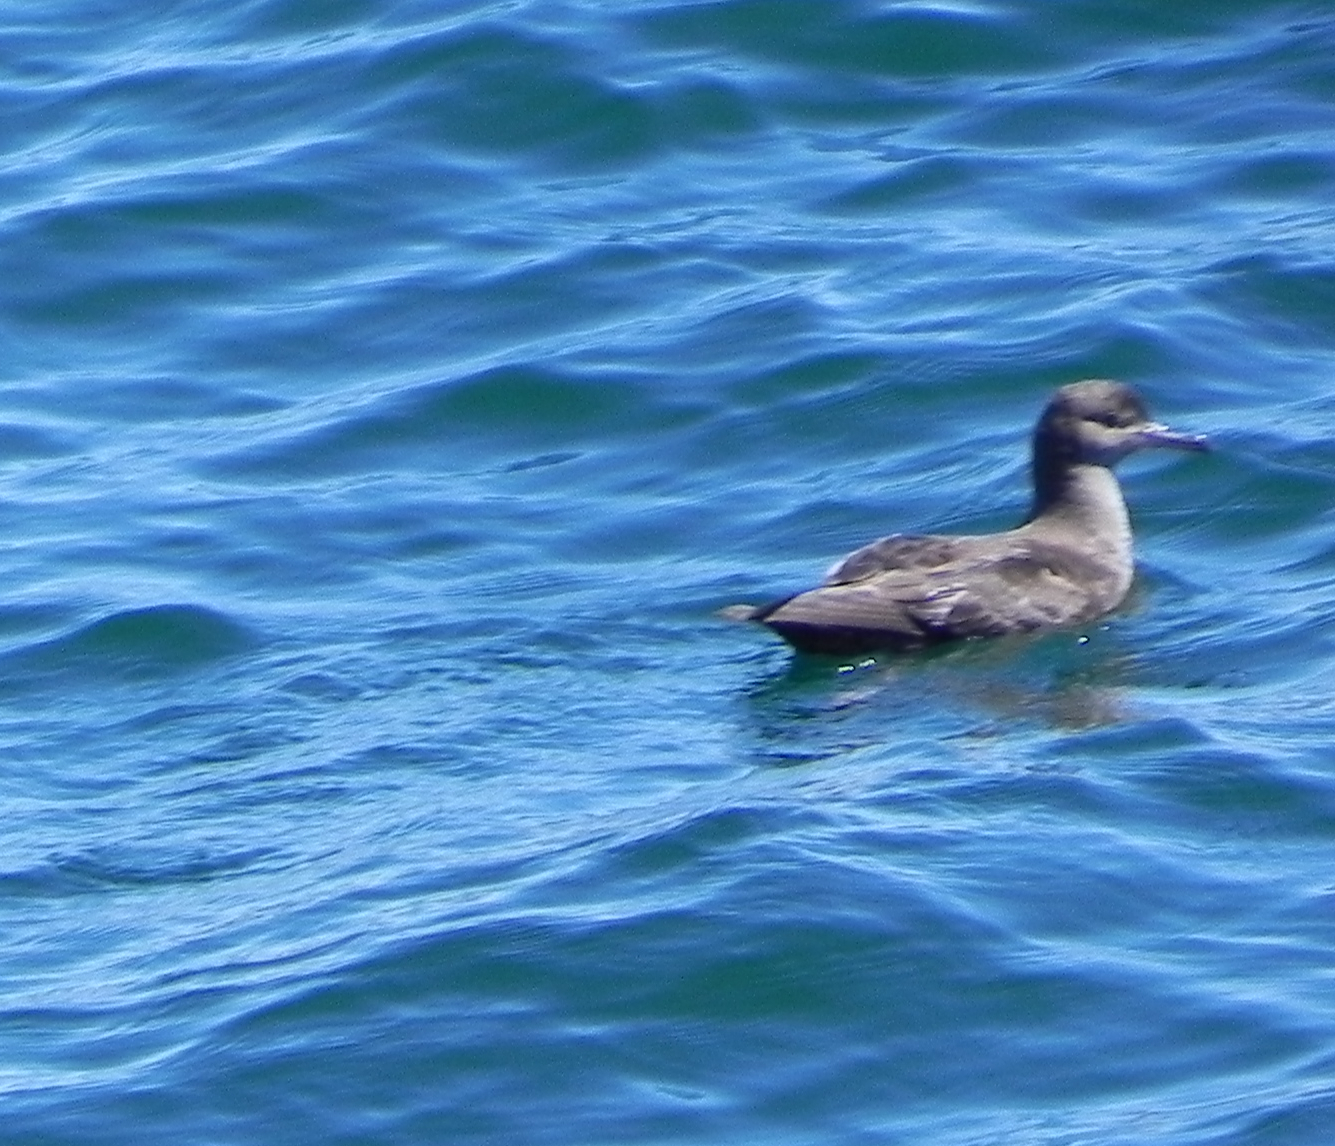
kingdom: Animalia
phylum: Chordata
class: Aves
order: Procellariiformes
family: Procellariidae
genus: Puffinus
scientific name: Puffinus griseus
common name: Sooty shearwater
